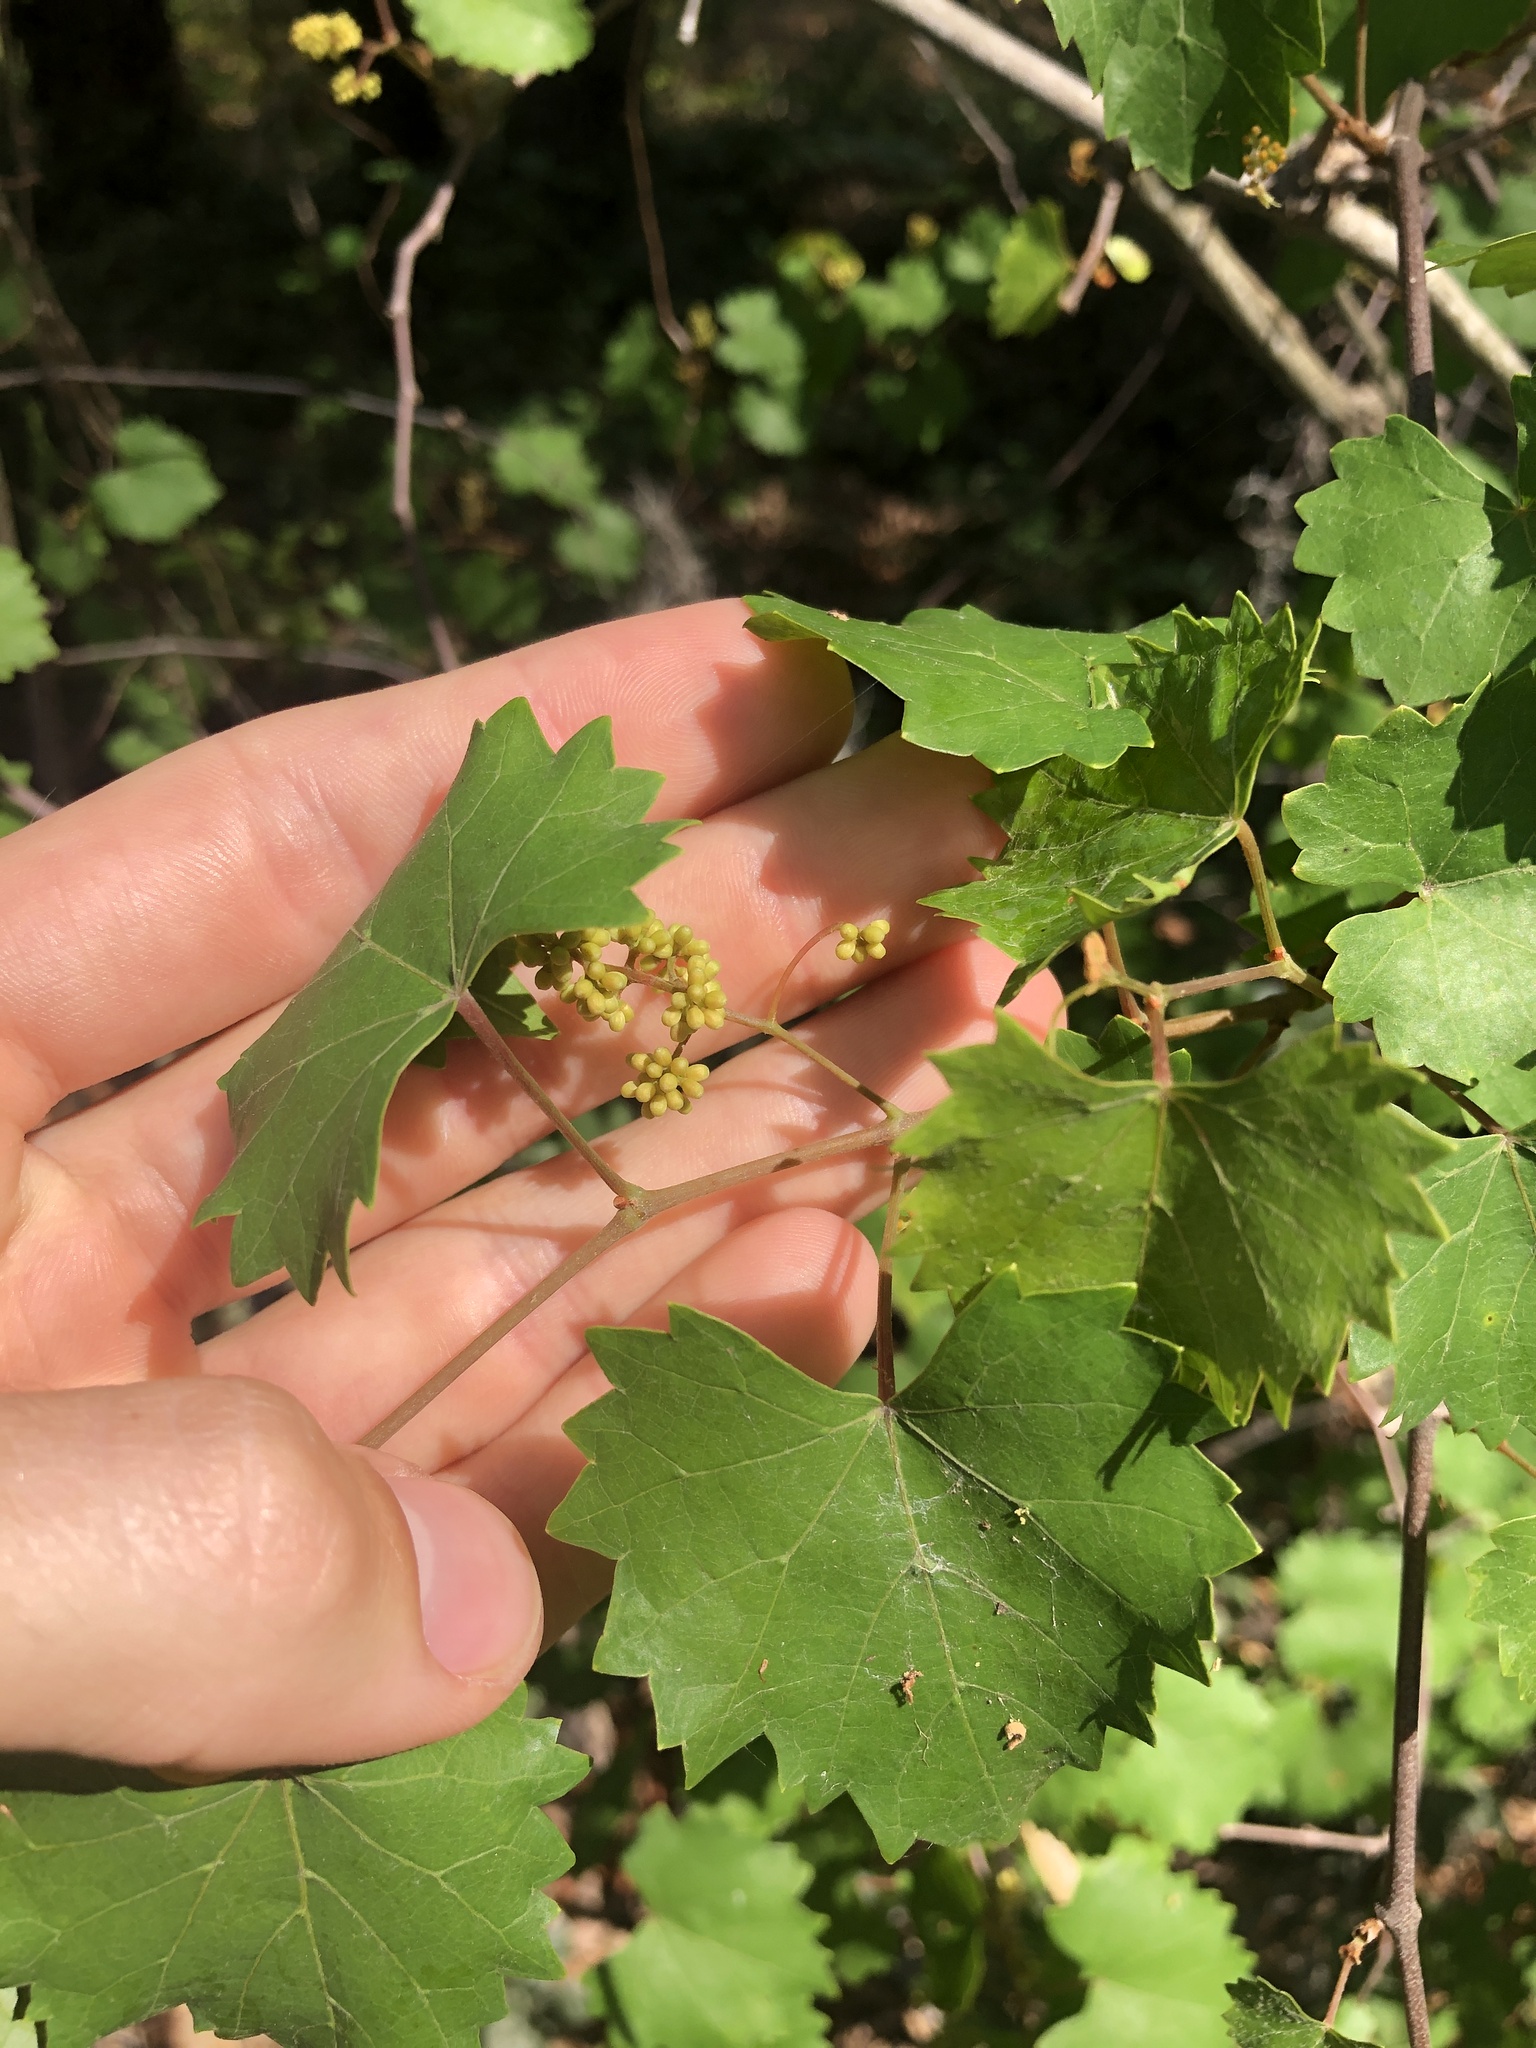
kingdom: Plantae
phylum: Tracheophyta
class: Magnoliopsida
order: Vitales
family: Vitaceae
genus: Vitis
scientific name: Vitis rotundifolia
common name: Muscadine grape
